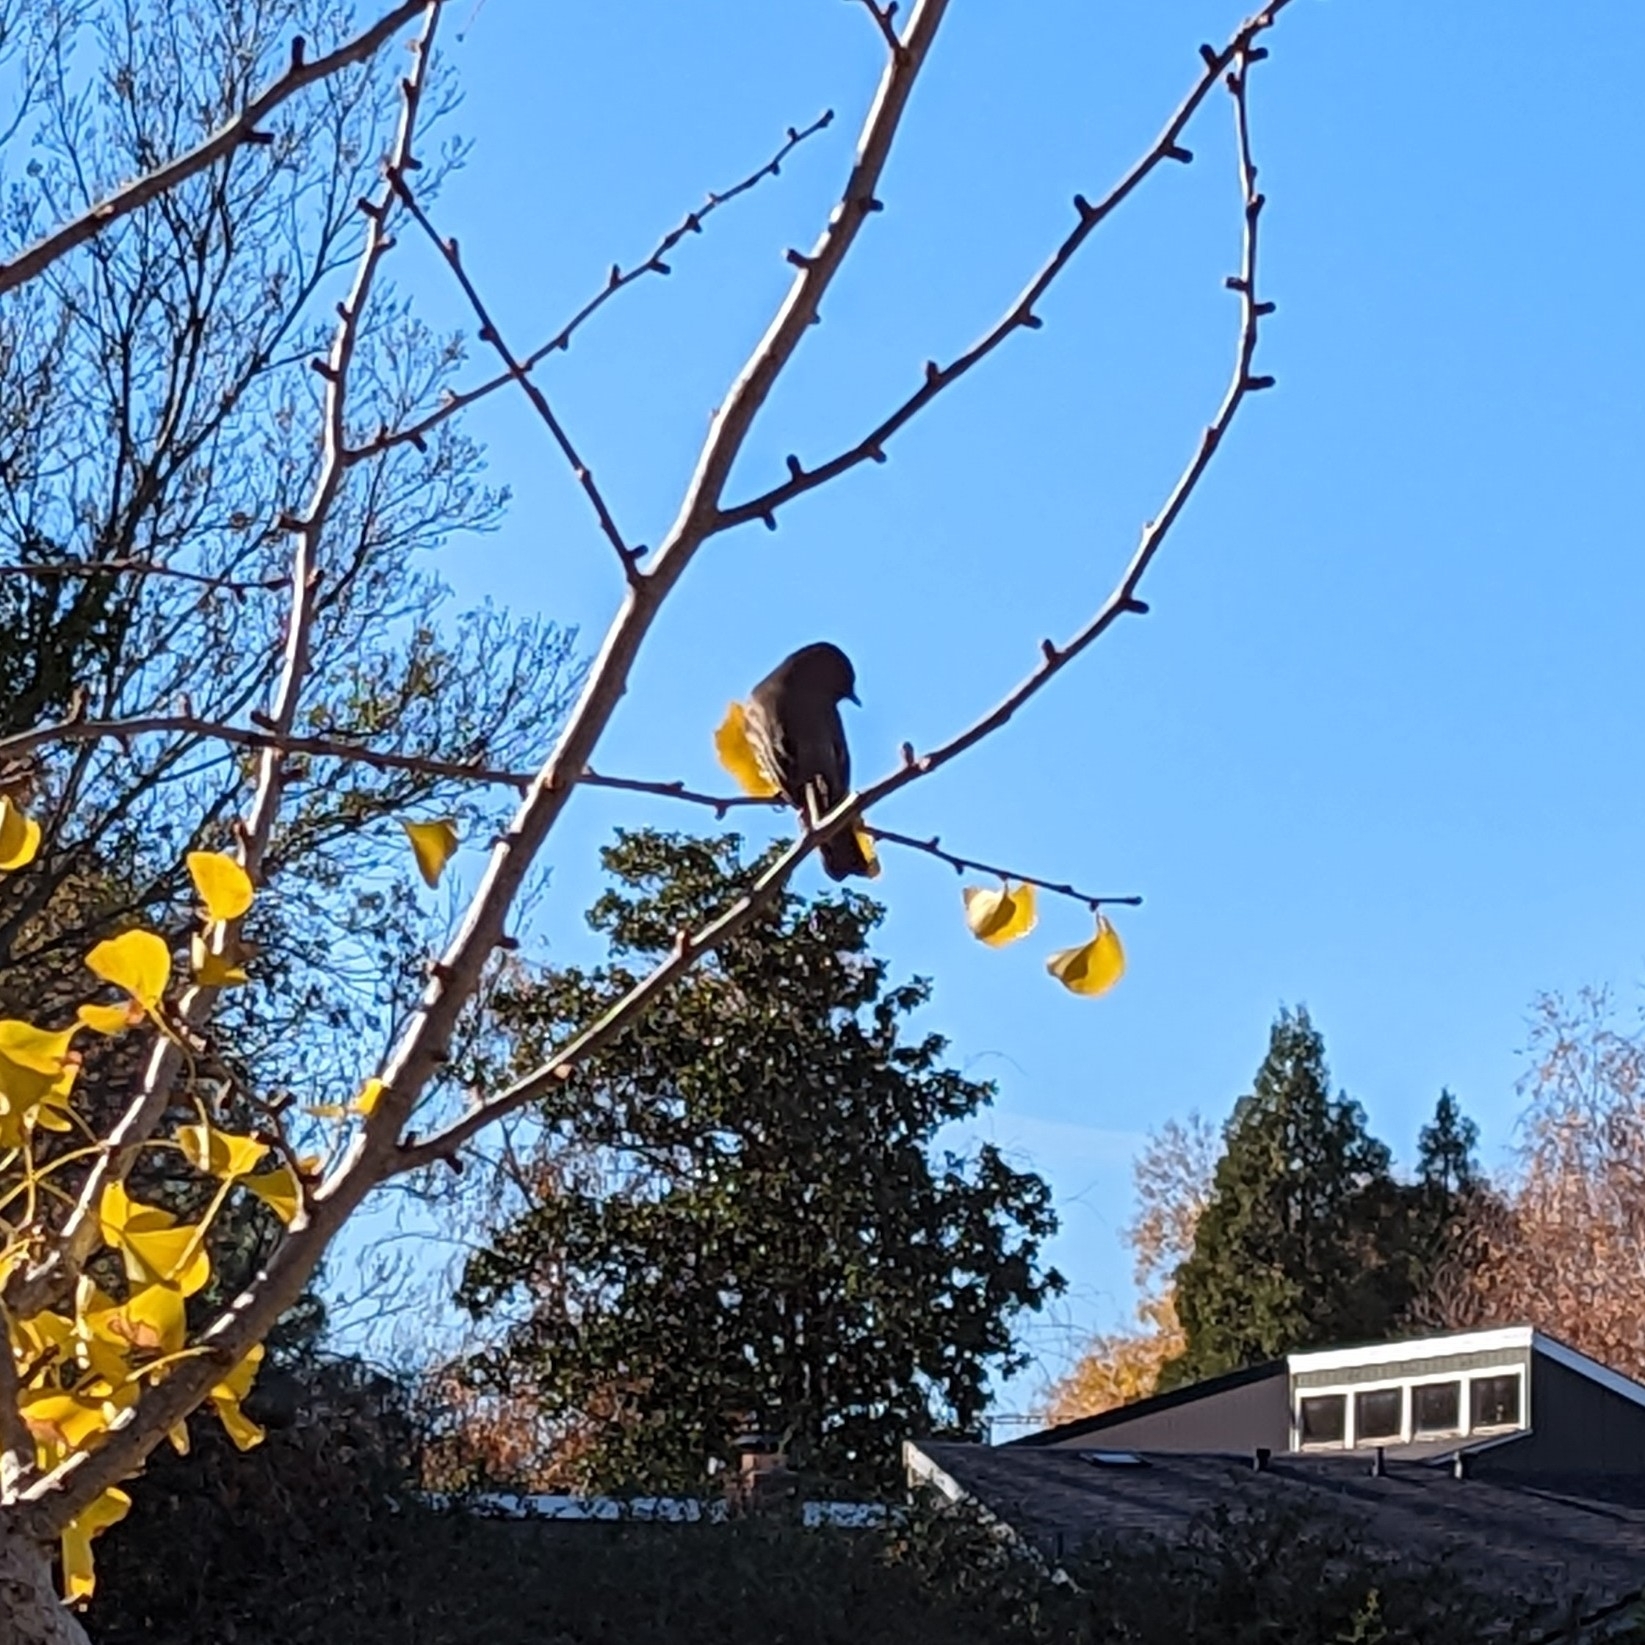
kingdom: Animalia
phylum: Chordata
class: Aves
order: Passeriformes
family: Tyrannidae
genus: Sayornis
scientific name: Sayornis nigricans
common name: Black phoebe
